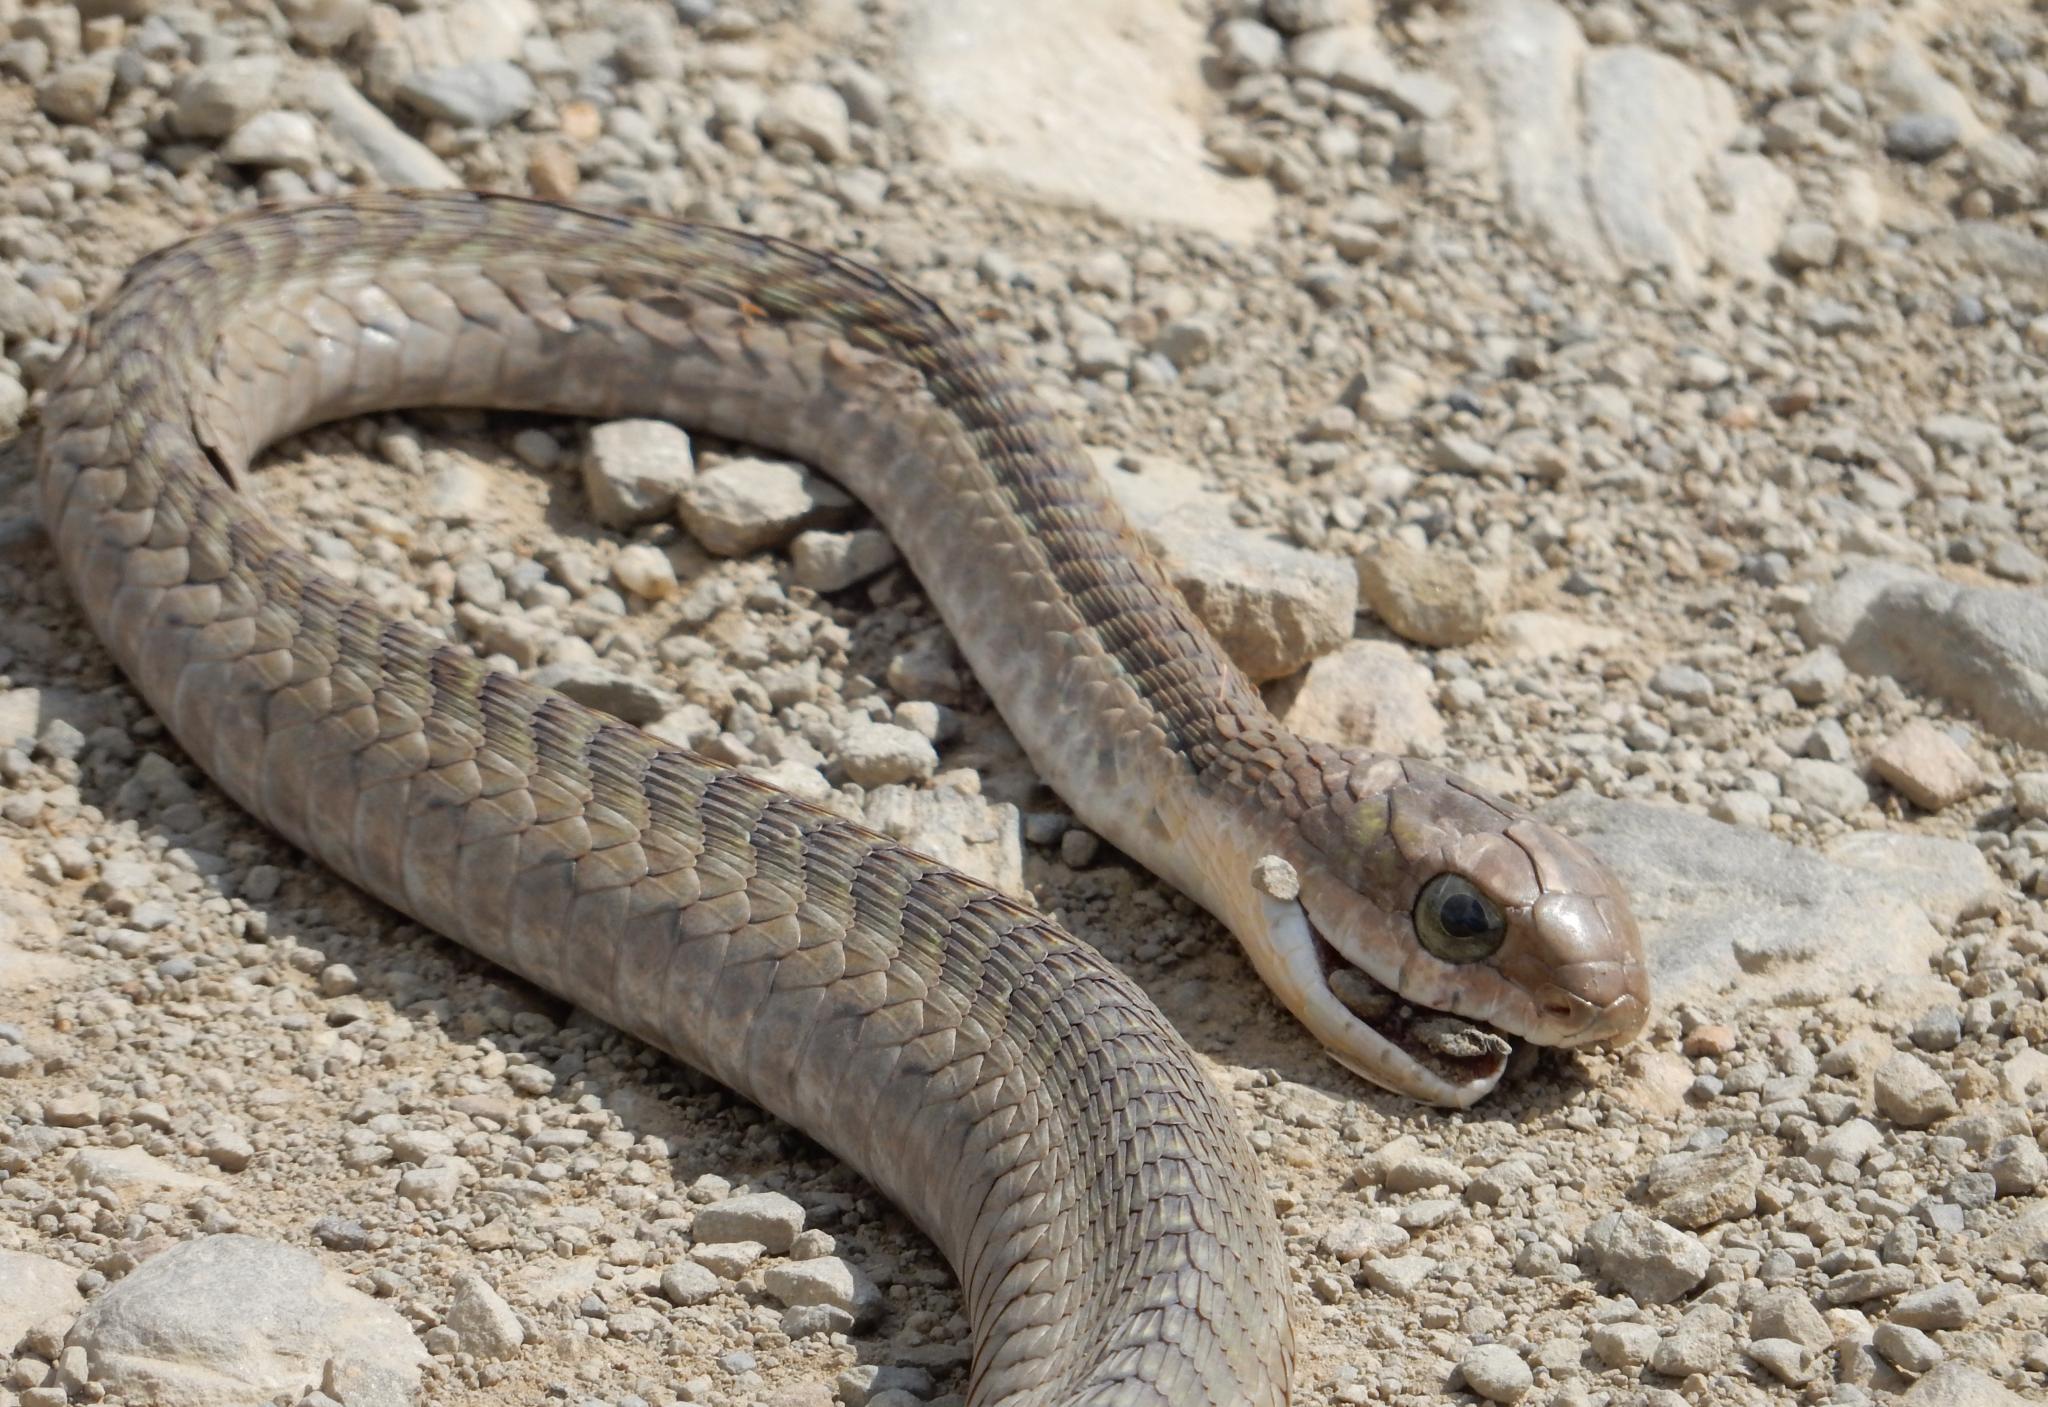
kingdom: Animalia
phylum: Chordata
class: Squamata
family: Colubridae
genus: Dispholidus
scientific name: Dispholidus typus
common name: Boomslang
